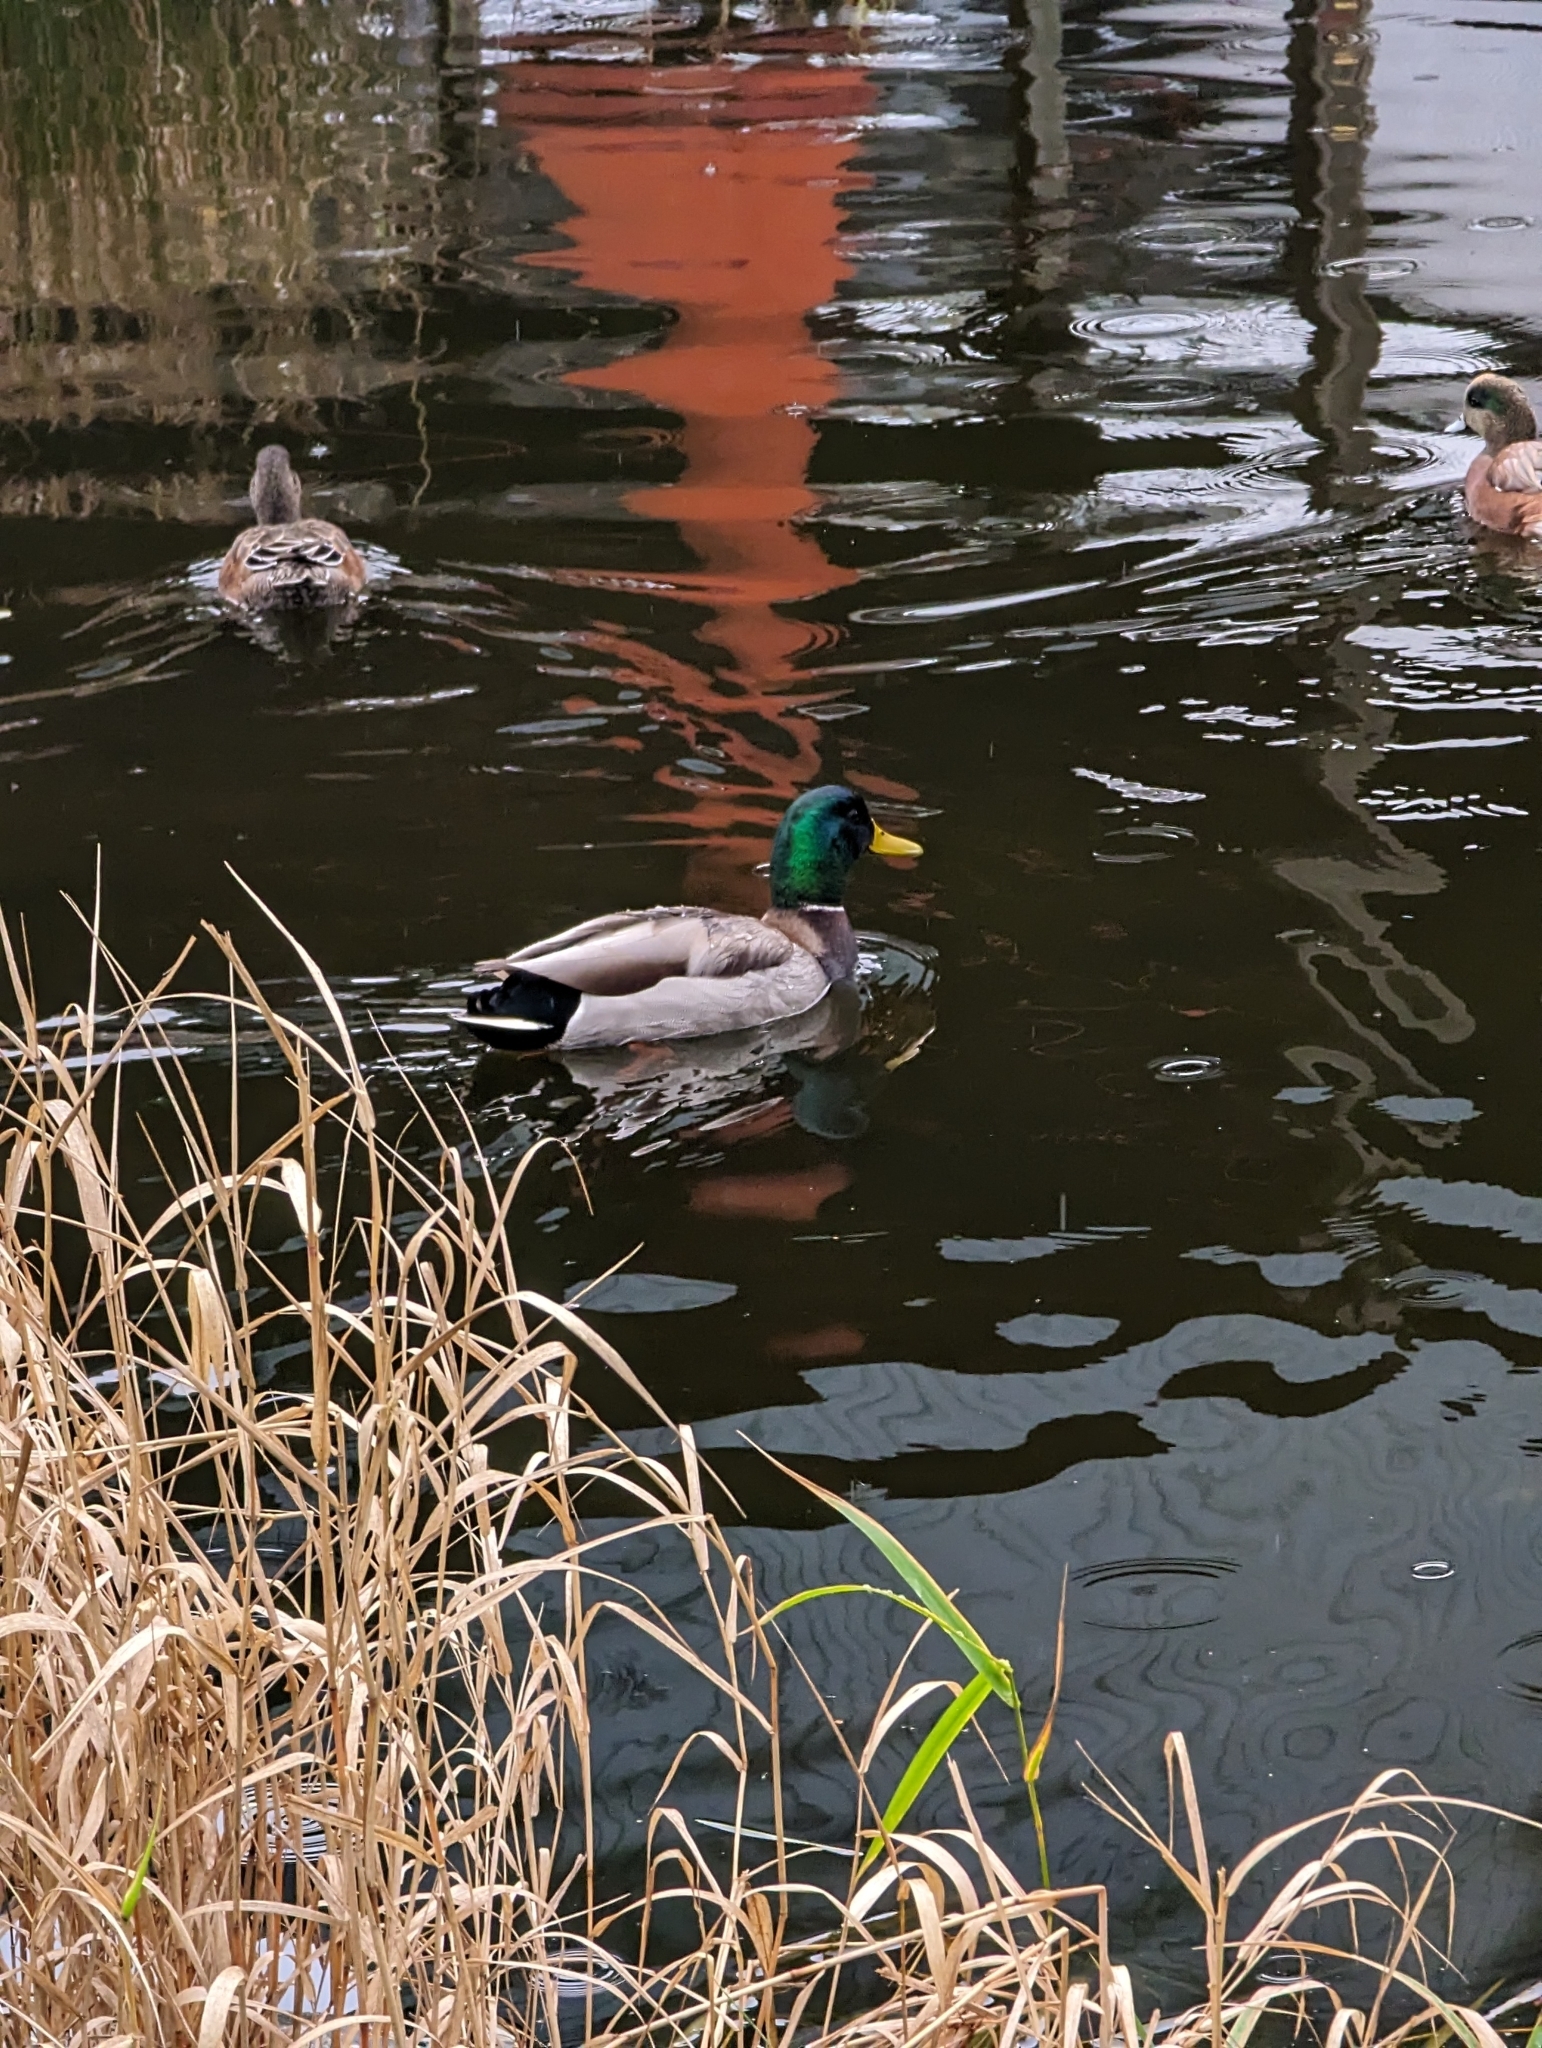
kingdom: Animalia
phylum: Chordata
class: Aves
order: Anseriformes
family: Anatidae
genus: Anas
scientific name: Anas platyrhynchos
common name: Mallard
